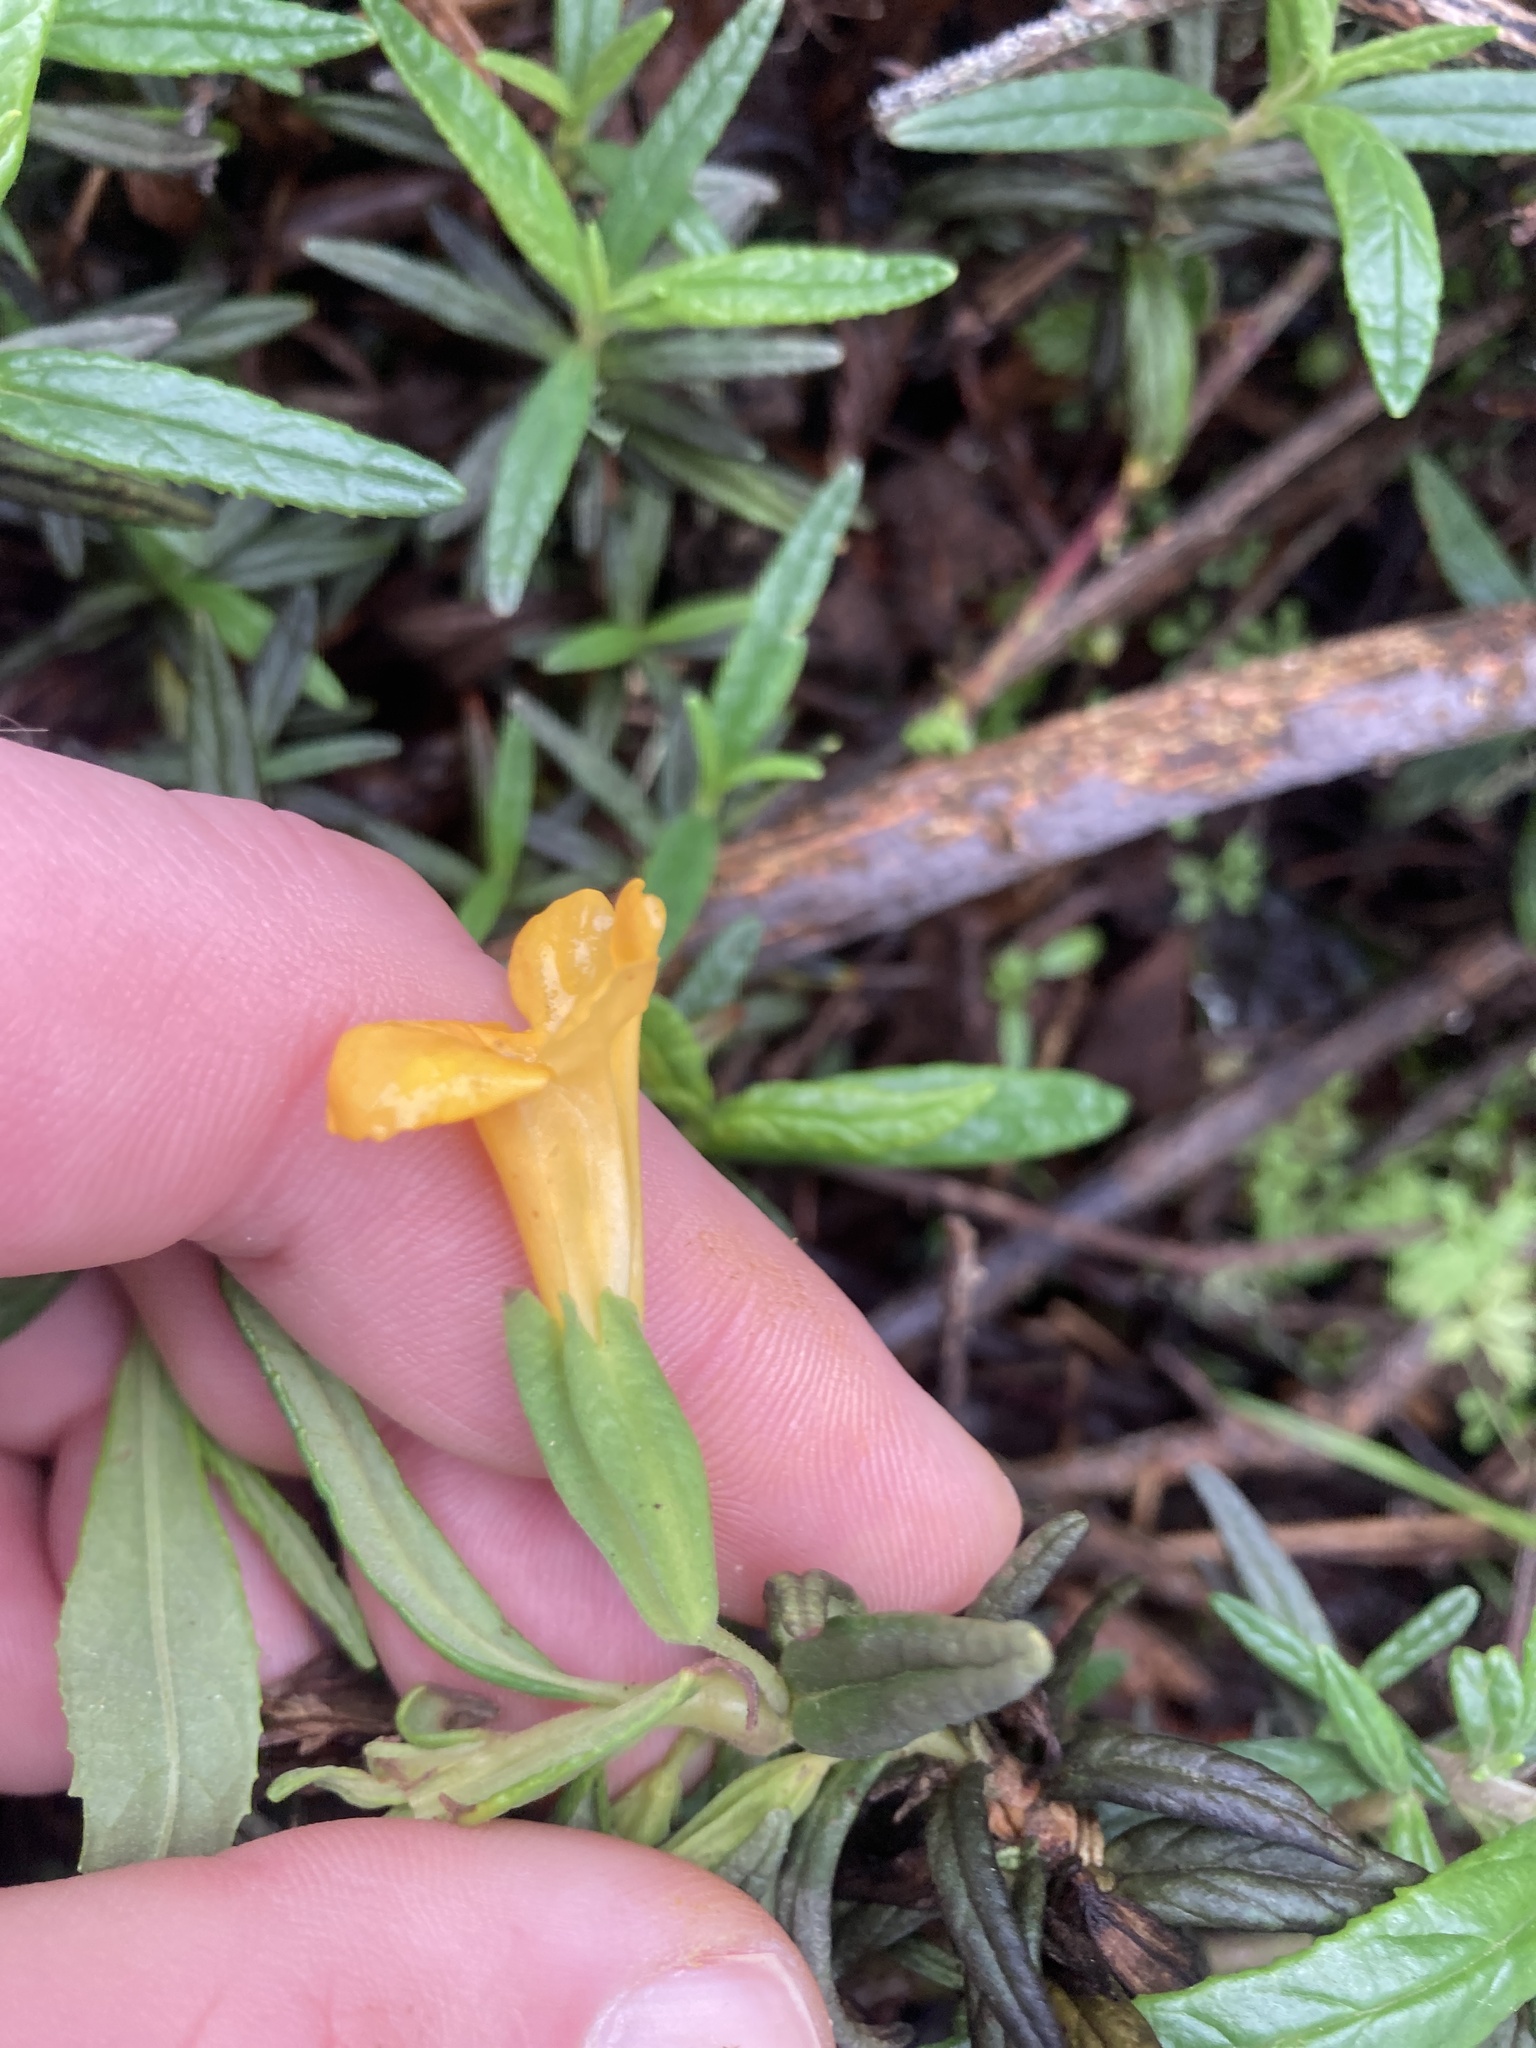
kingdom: Plantae
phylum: Tracheophyta
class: Magnoliopsida
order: Lamiales
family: Phrymaceae
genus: Diplacus
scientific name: Diplacus aurantiacus
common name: Bush monkey-flower
